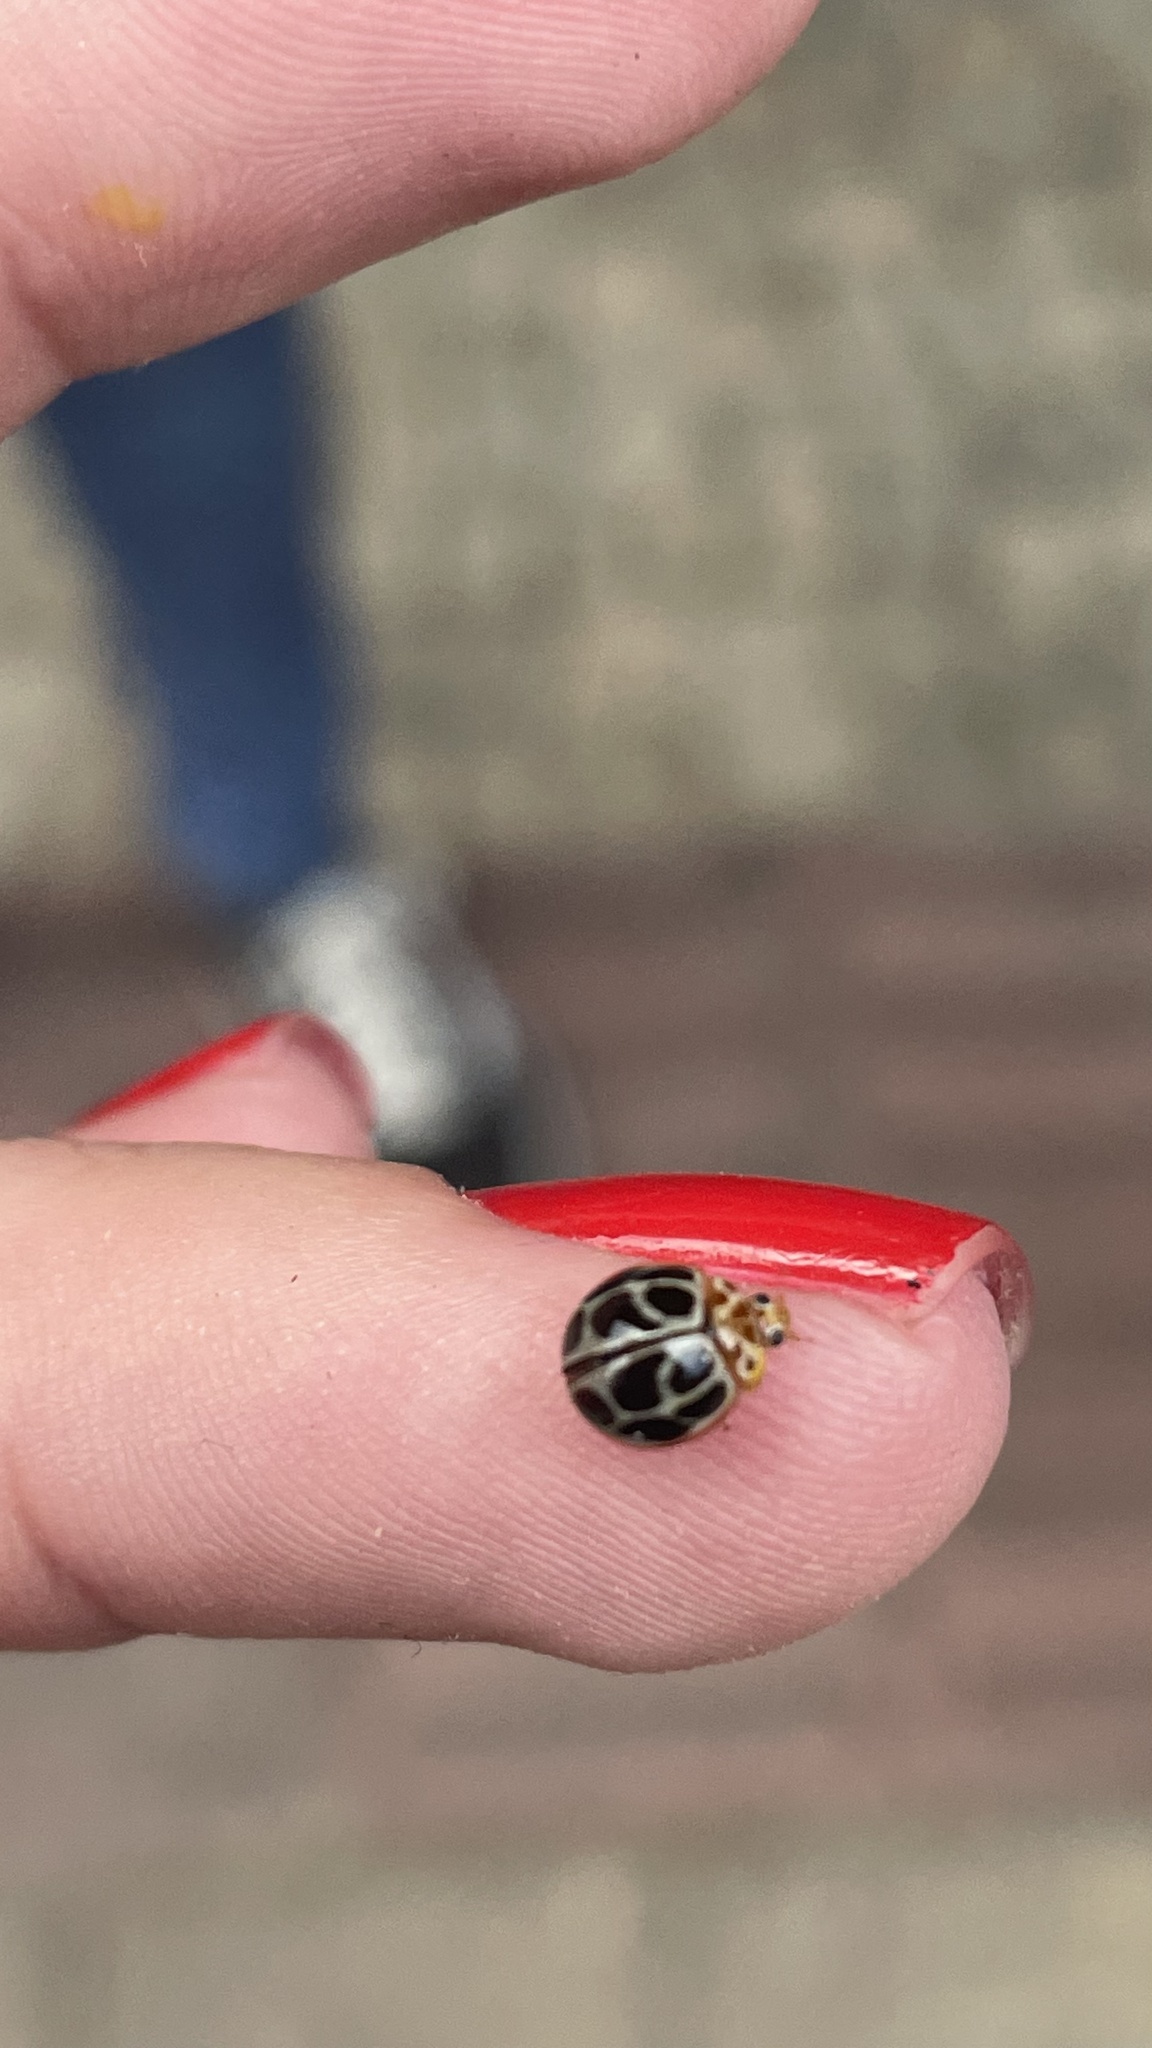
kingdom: Animalia
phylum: Arthropoda
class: Insecta
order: Coleoptera
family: Coccinellidae
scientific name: Coccinellidae
